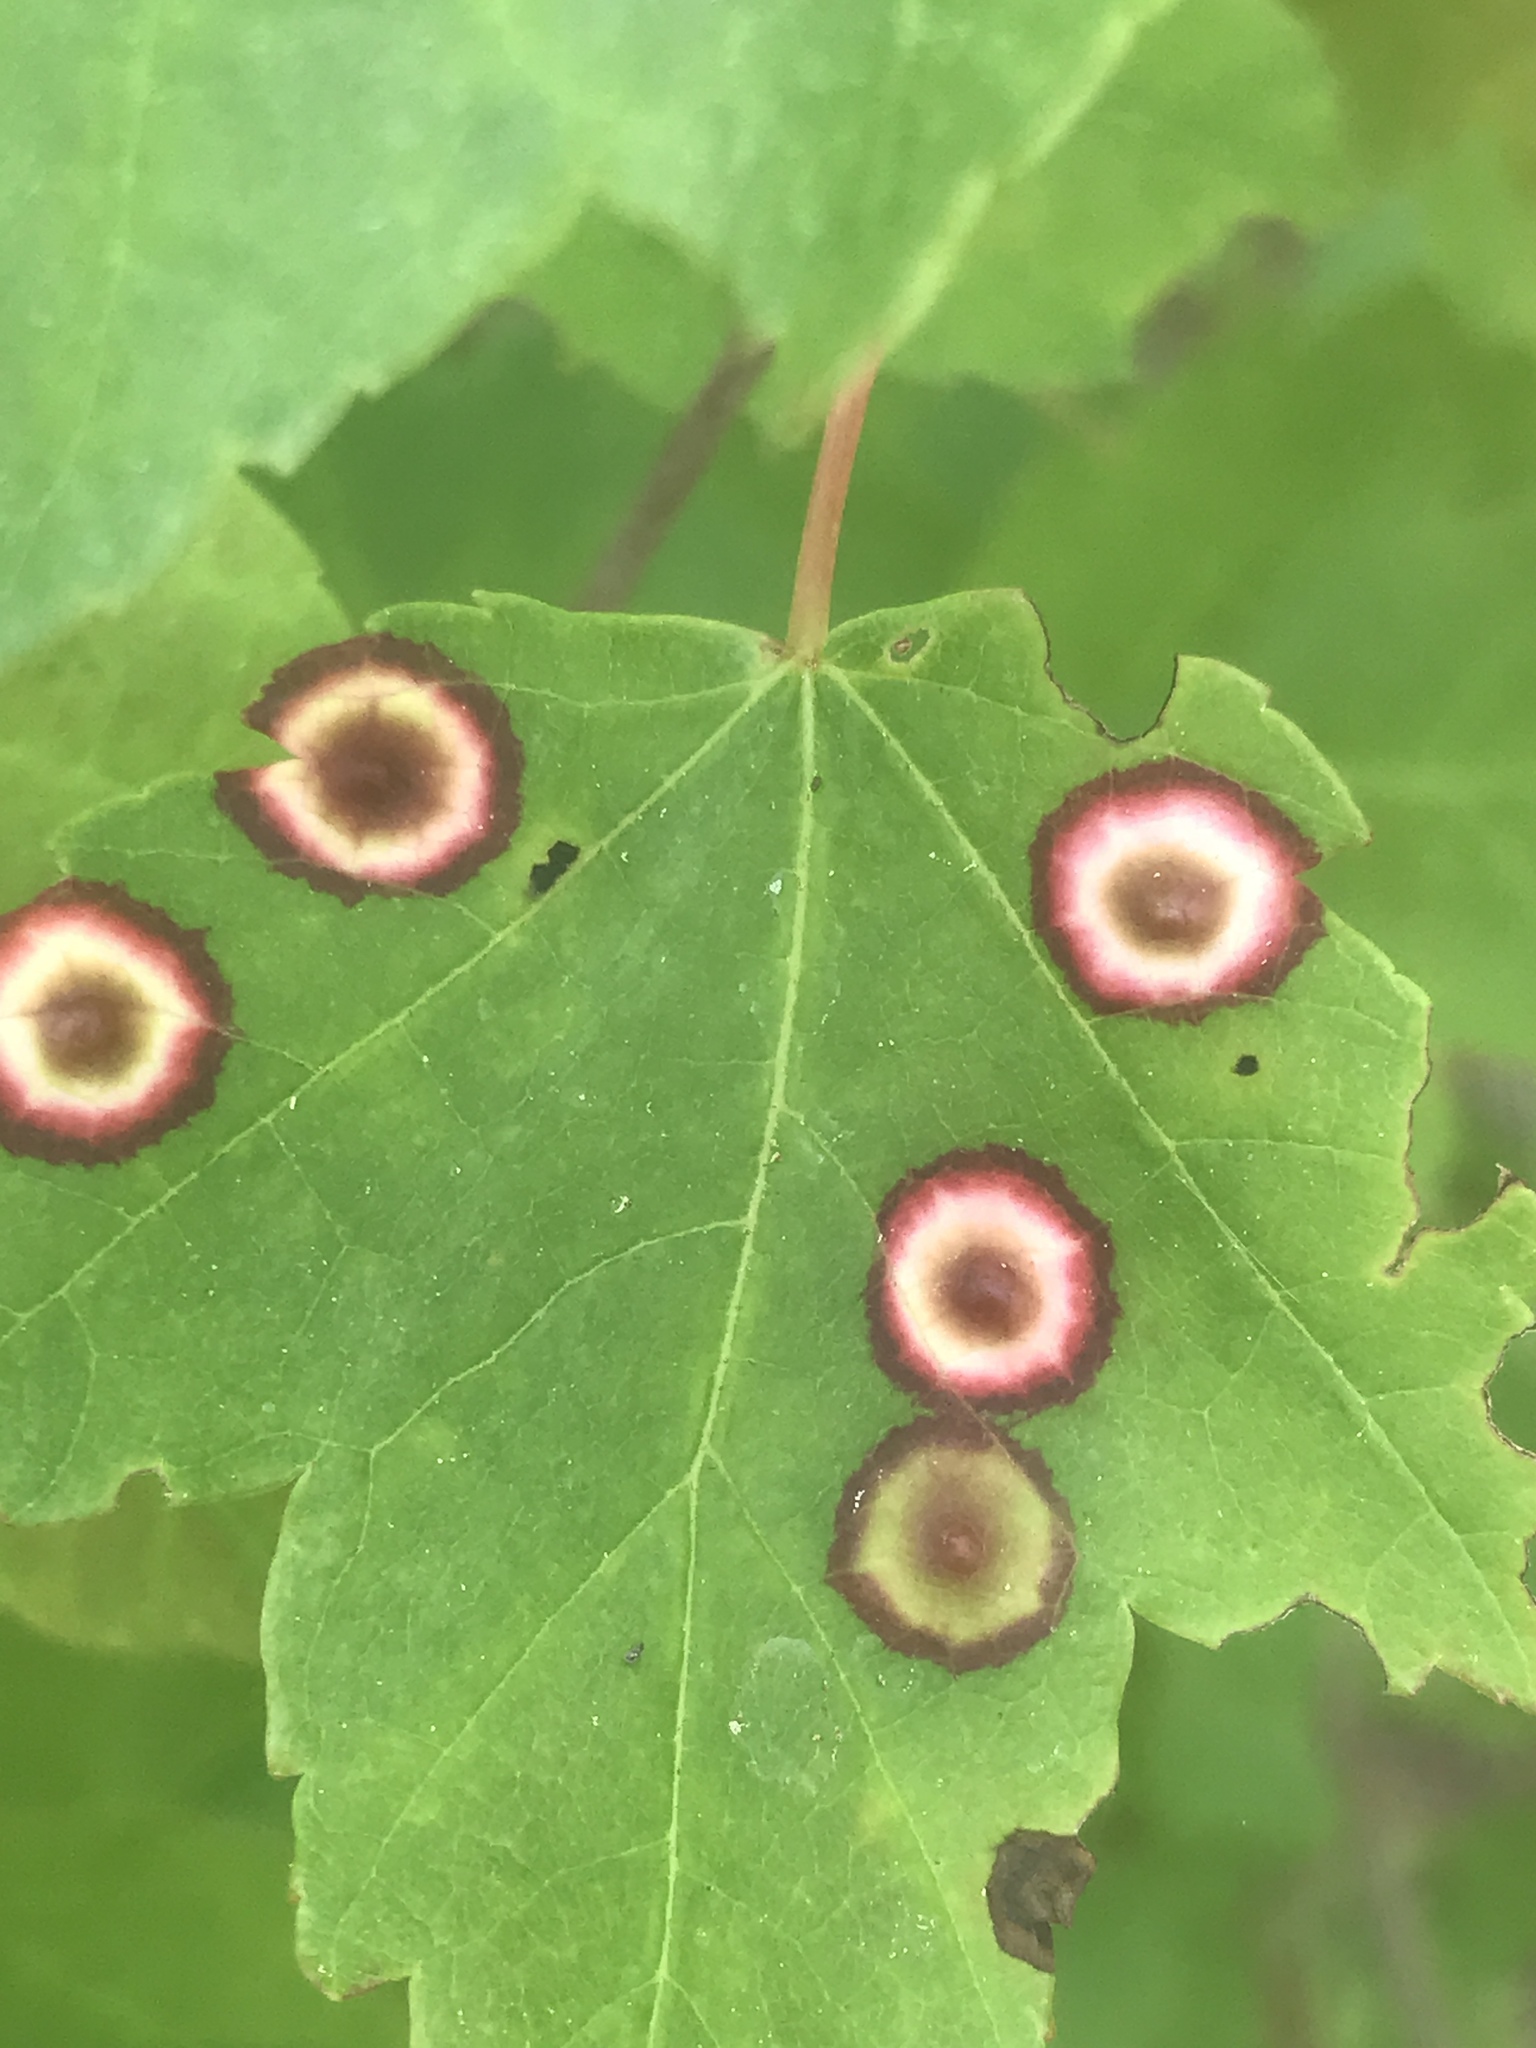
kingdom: Animalia
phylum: Arthropoda
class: Insecta
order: Diptera
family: Cecidomyiidae
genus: Acericecis
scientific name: Acericecis ocellaris
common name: Ocellate gall midge
